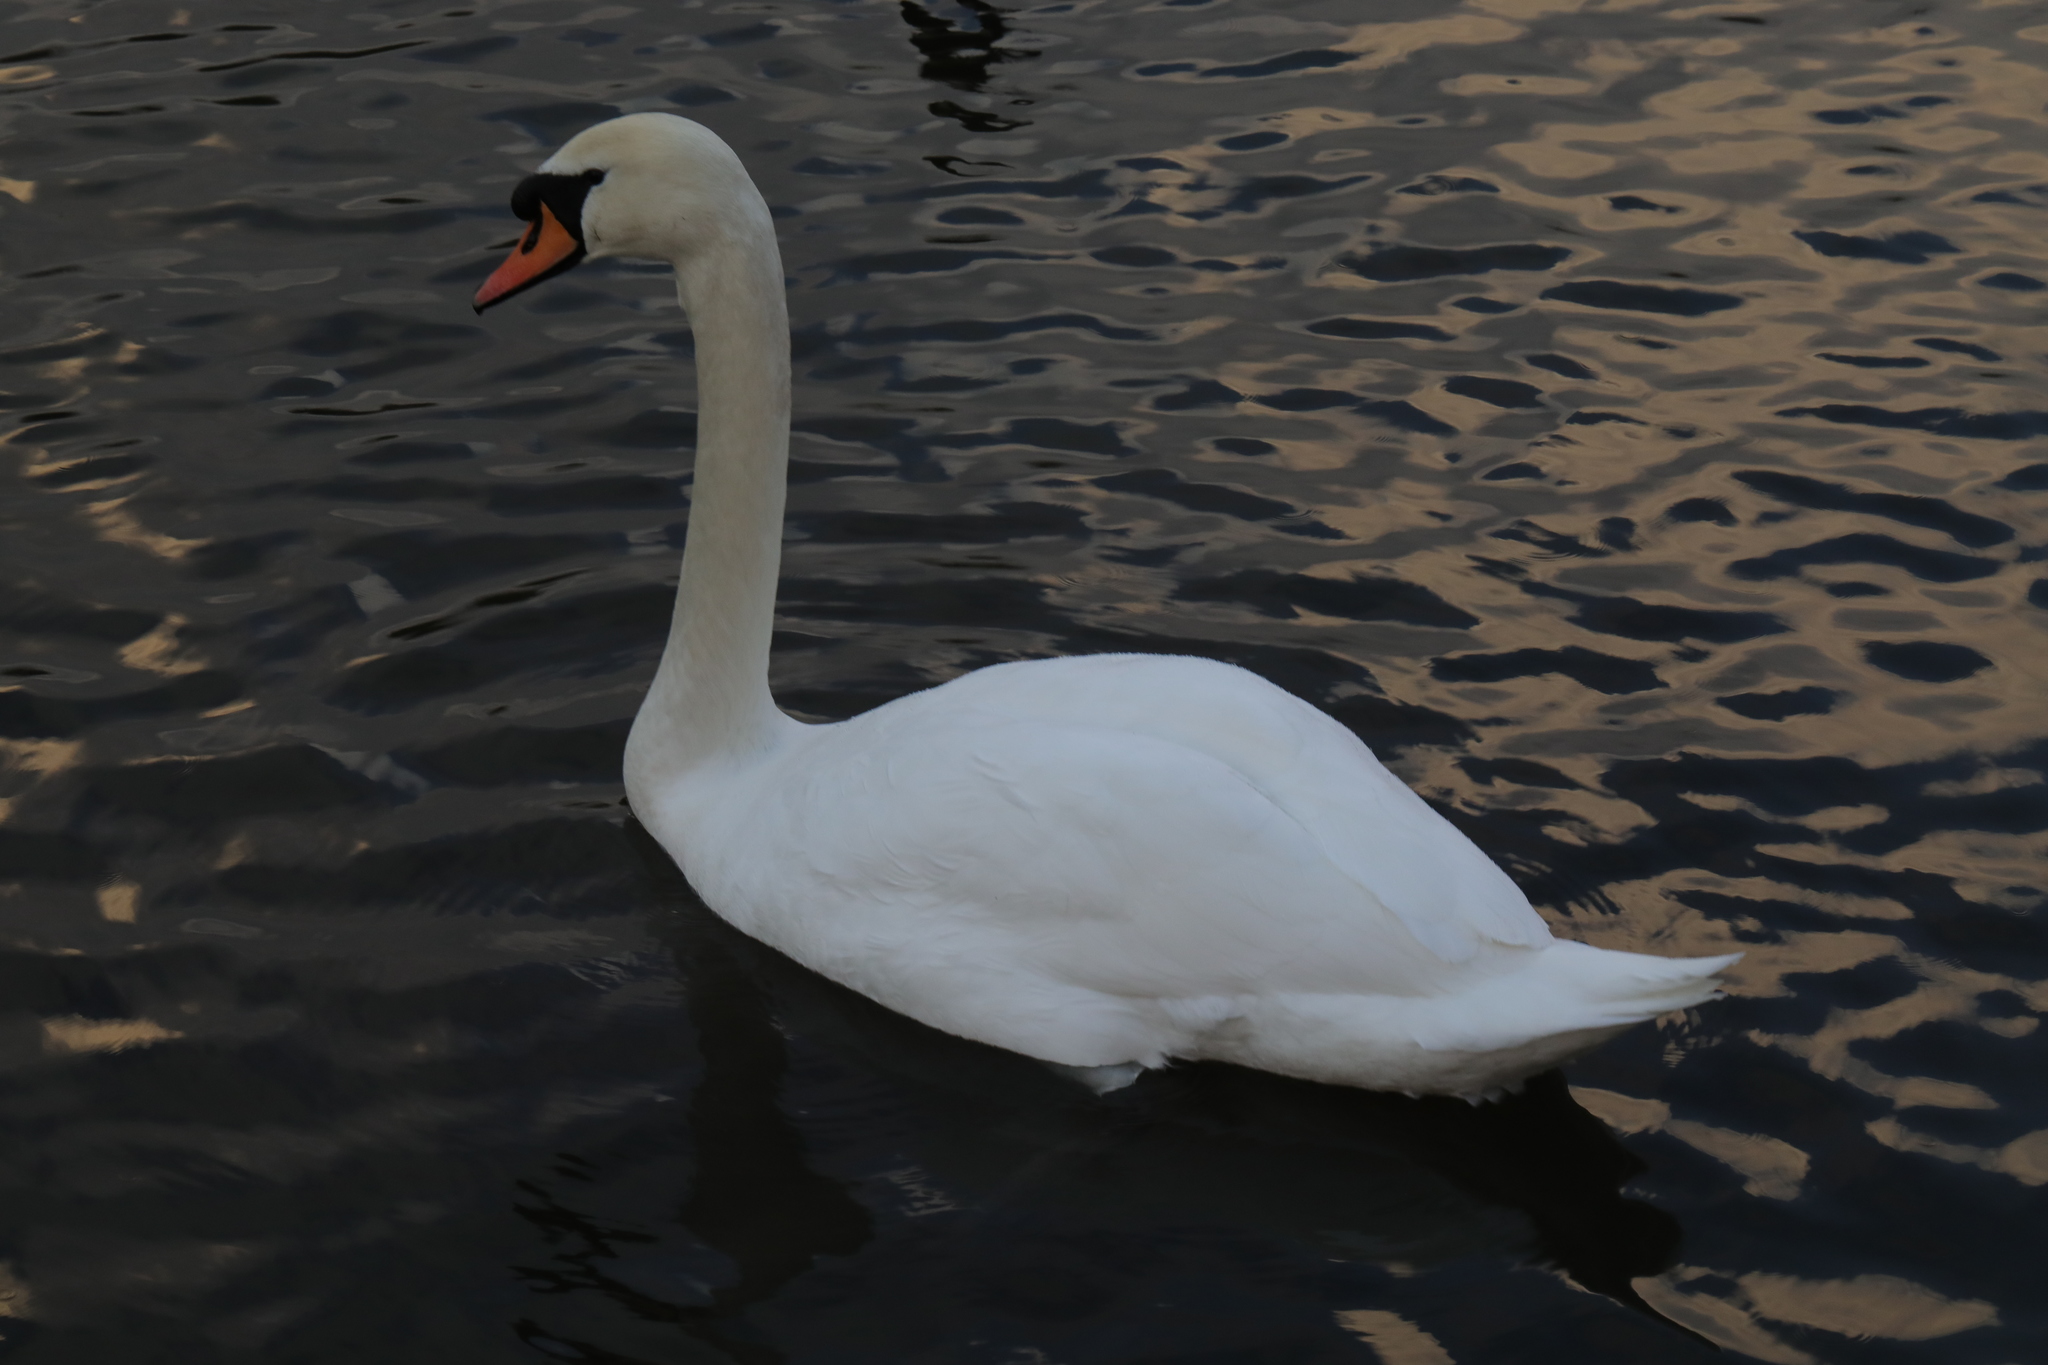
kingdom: Animalia
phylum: Chordata
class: Aves
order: Anseriformes
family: Anatidae
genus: Cygnus
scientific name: Cygnus olor
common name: Mute swan
